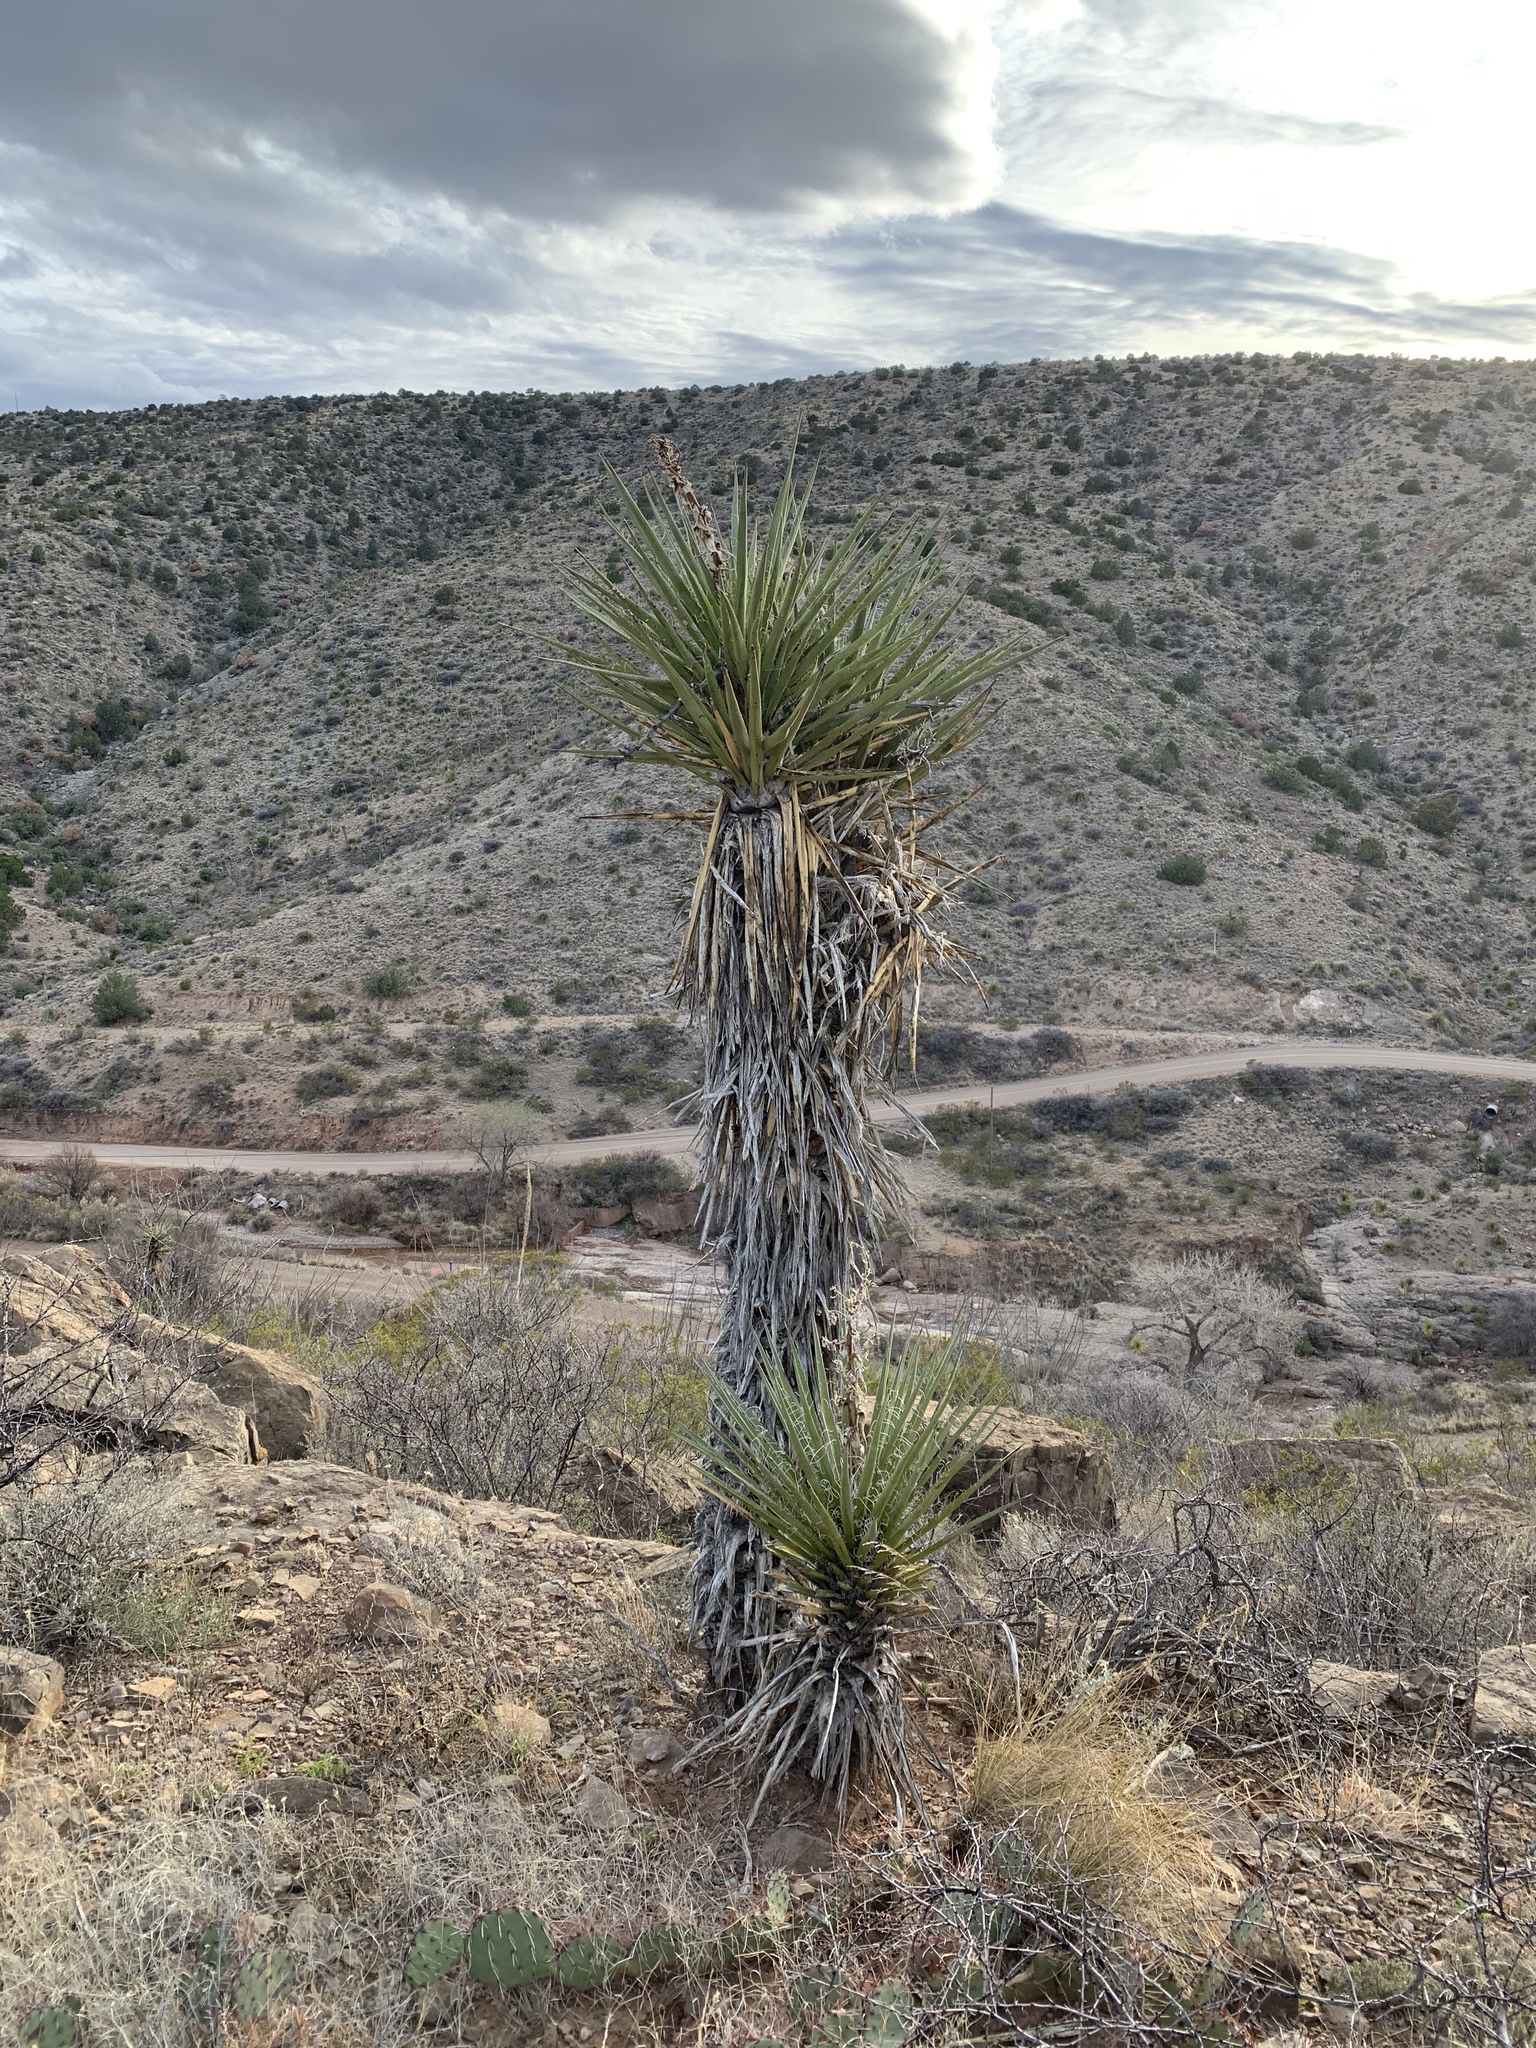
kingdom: Plantae
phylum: Tracheophyta
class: Liliopsida
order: Asparagales
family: Asparagaceae
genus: Yucca
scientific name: Yucca treculiana
